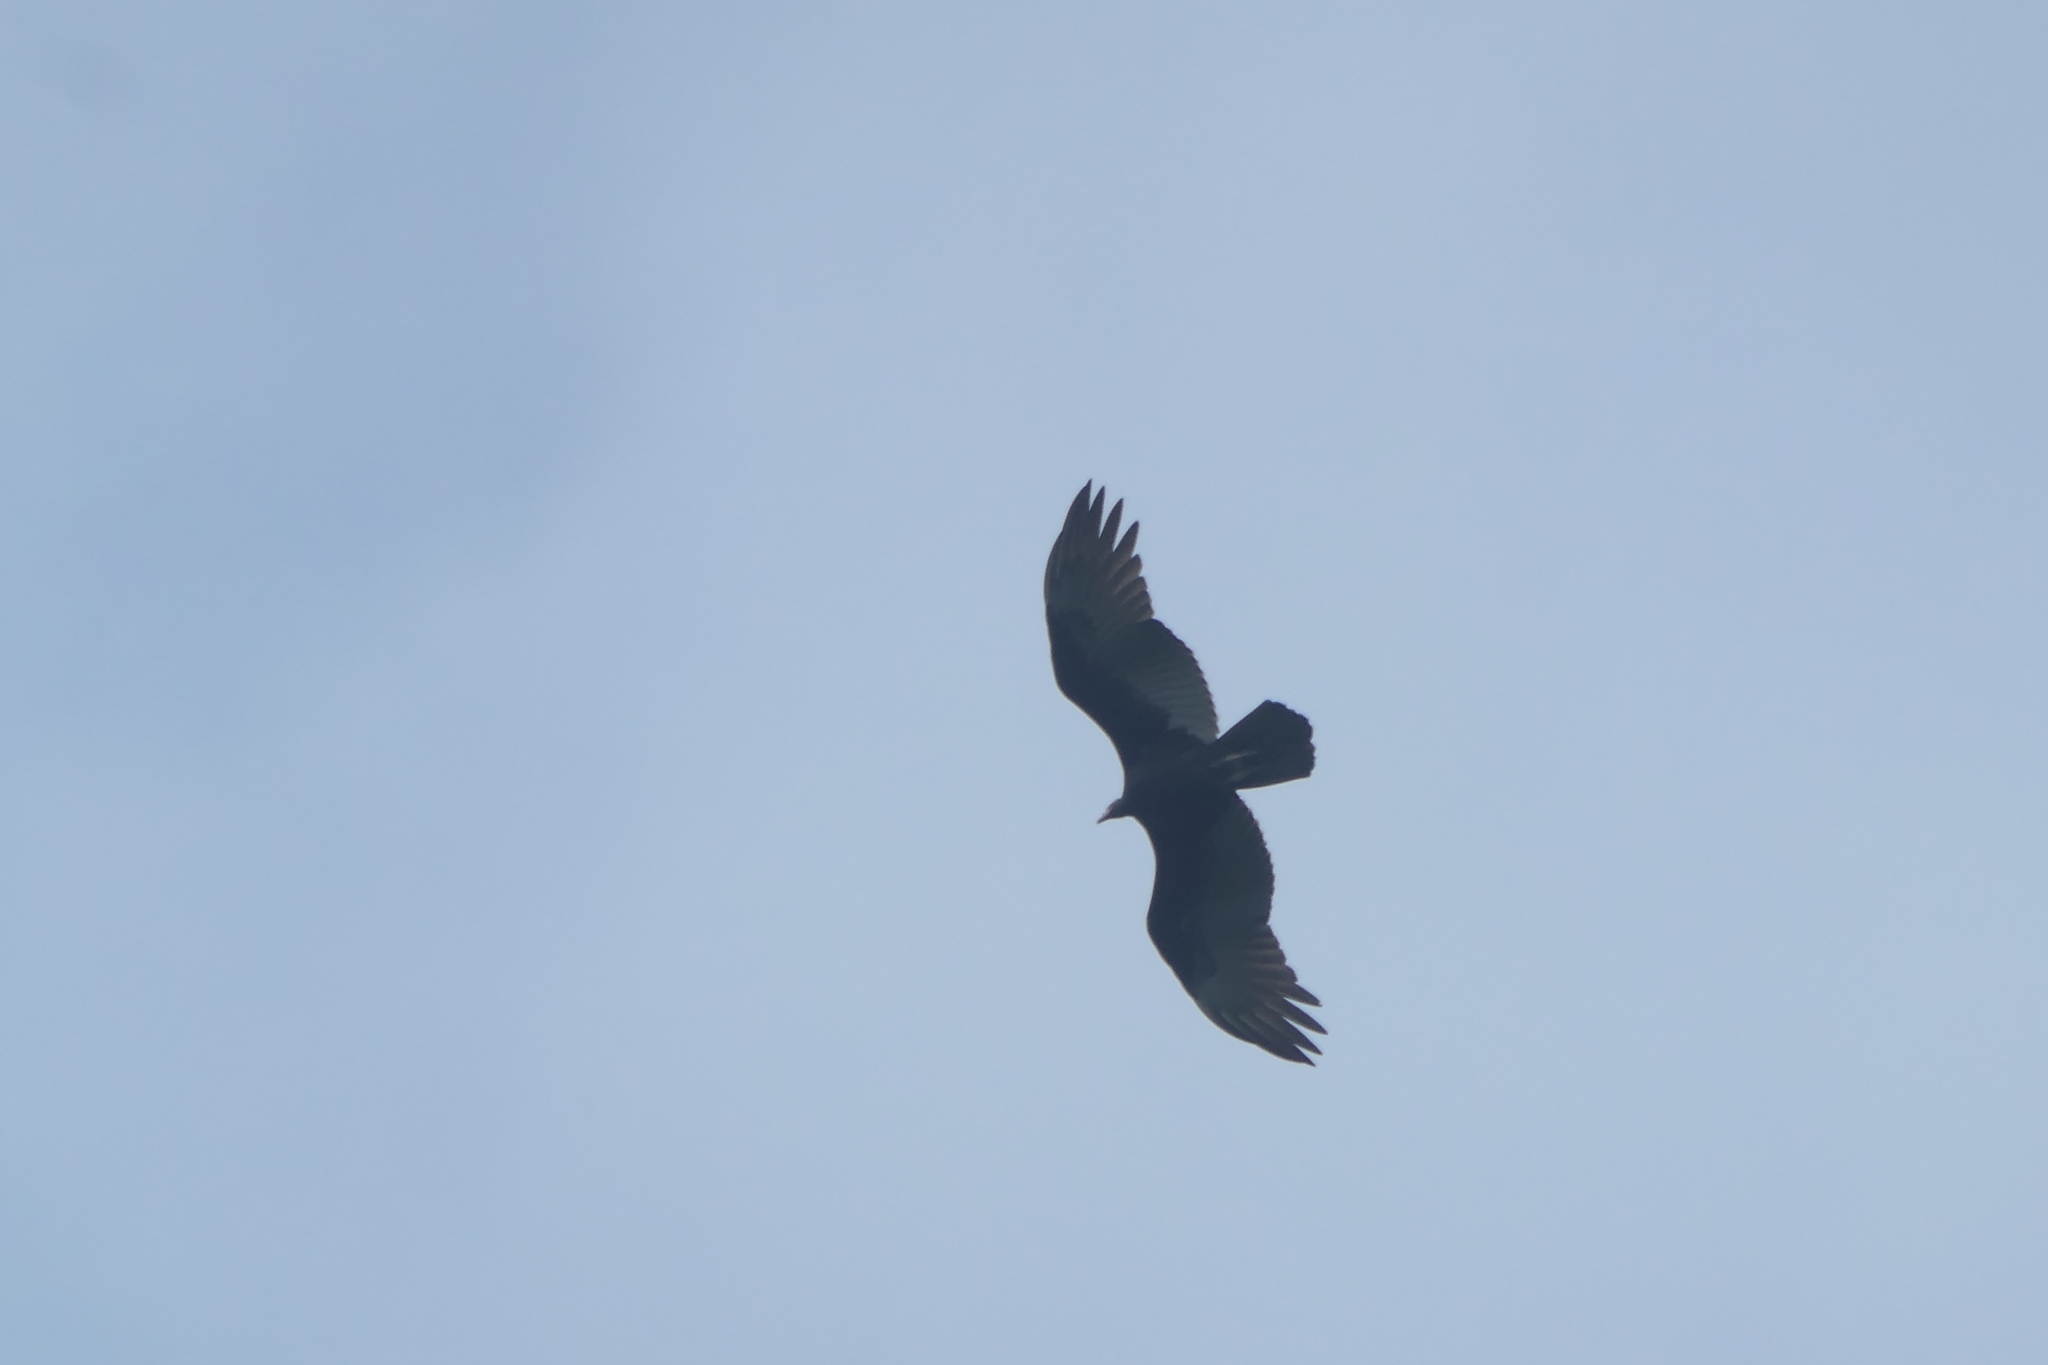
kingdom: Animalia
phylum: Chordata
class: Aves
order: Accipitriformes
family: Cathartidae
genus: Cathartes
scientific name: Cathartes aura
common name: Turkey vulture
